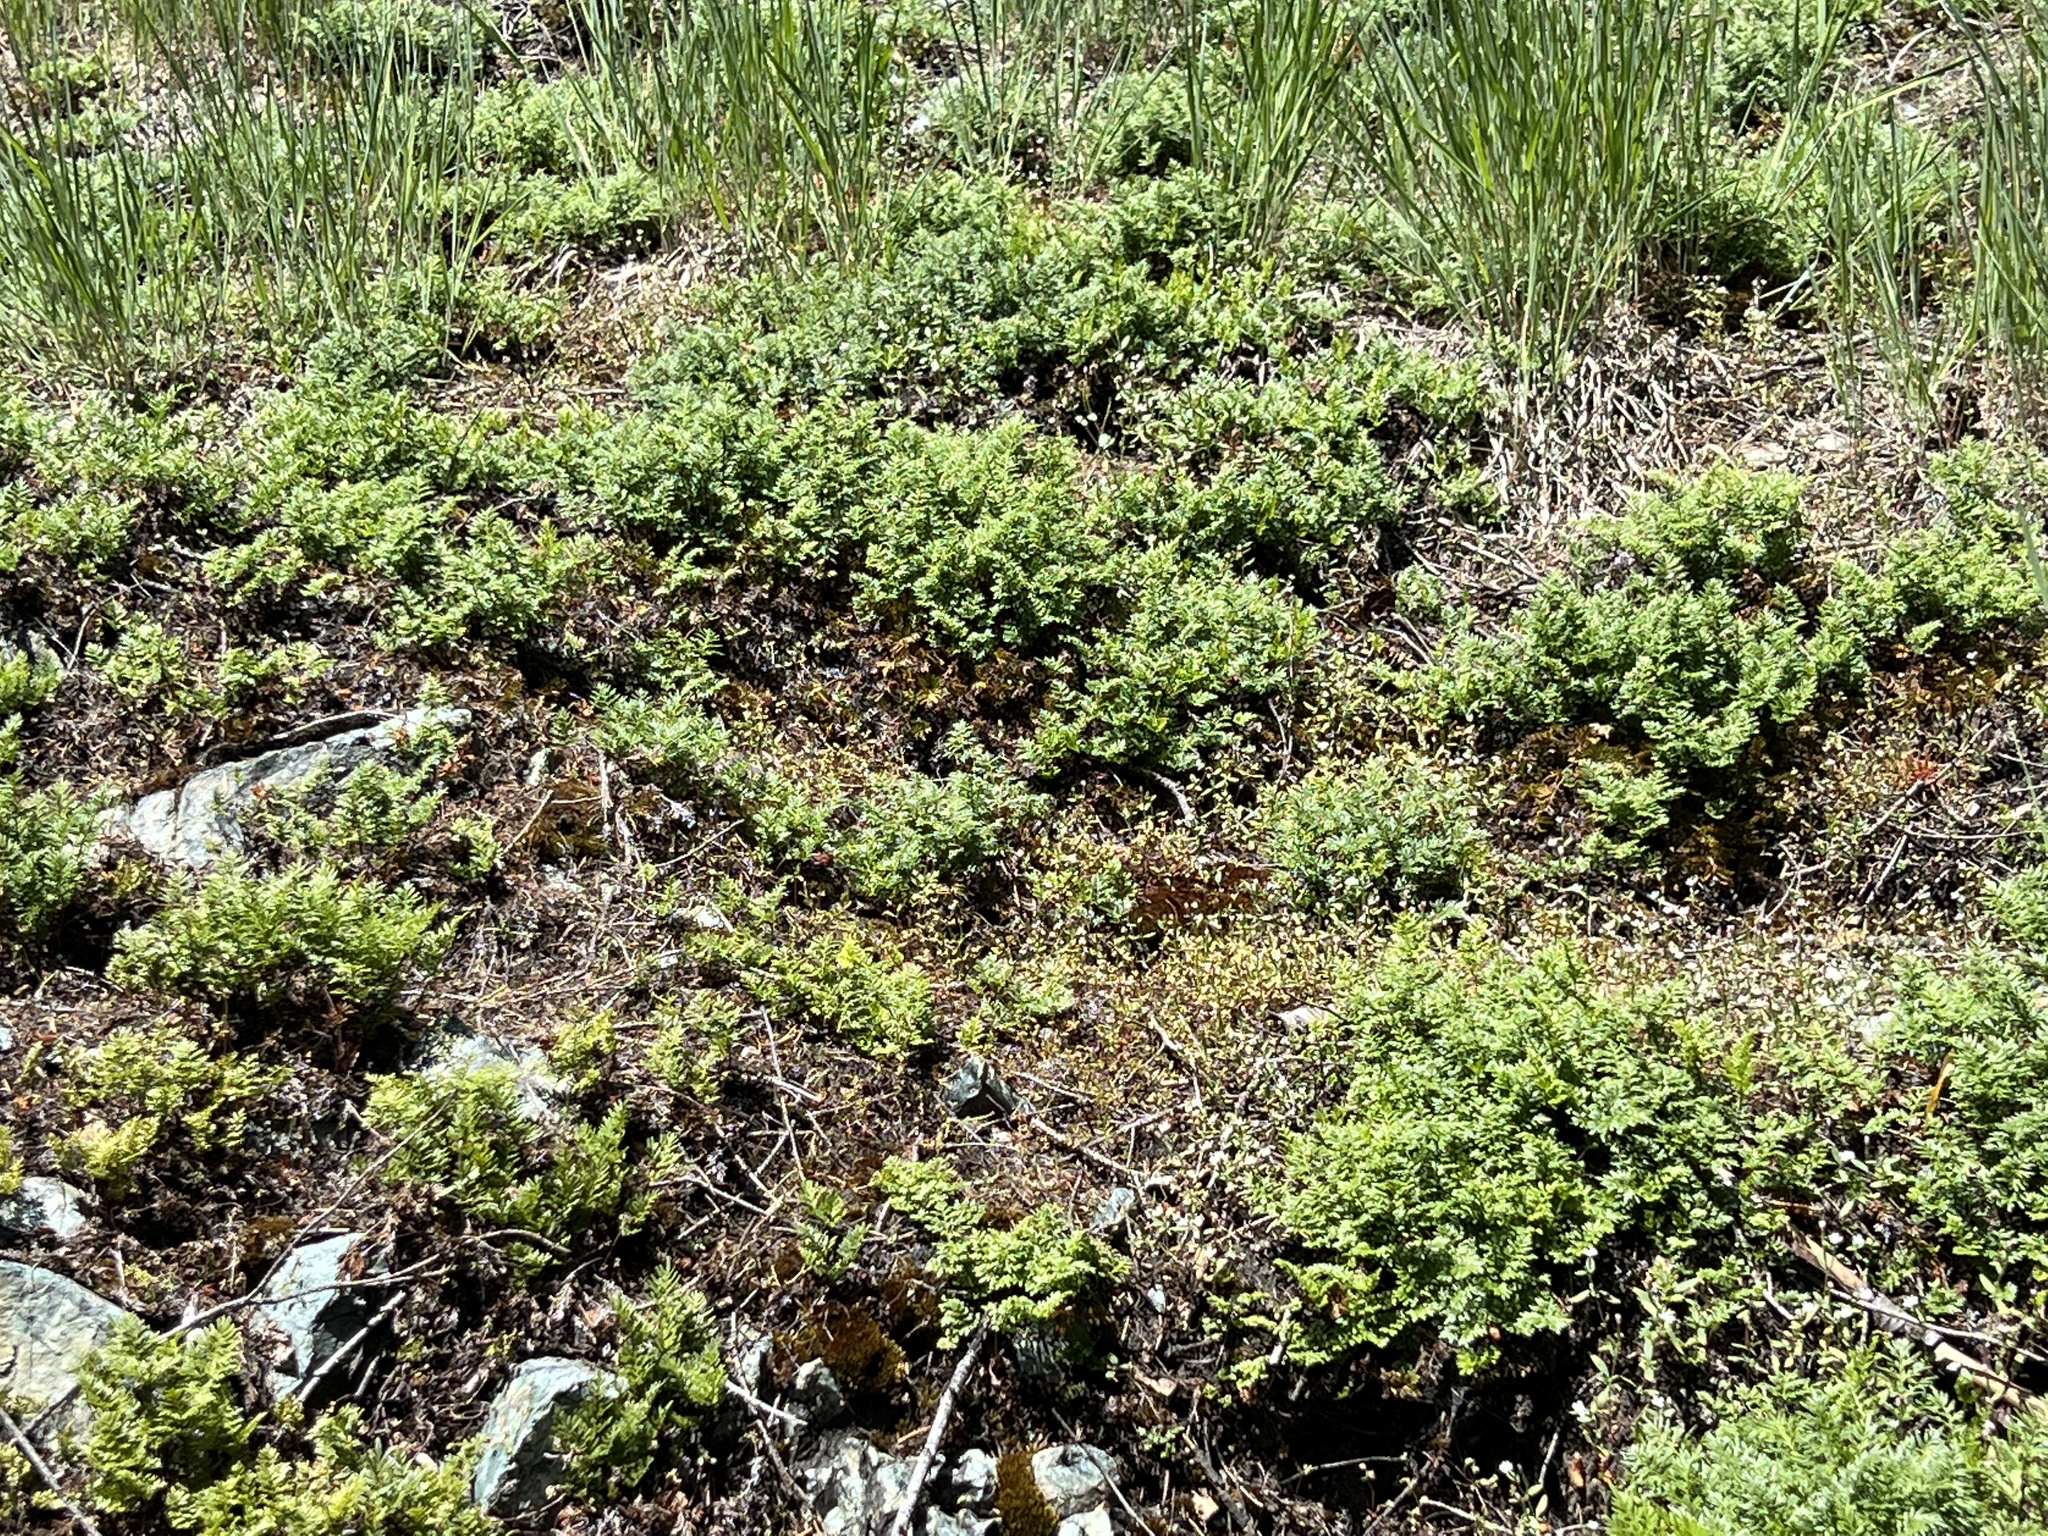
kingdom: Plantae
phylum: Tracheophyta
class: Polypodiopsida
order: Polypodiales
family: Pteridaceae
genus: Aspidotis
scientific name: Aspidotis densa
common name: Indian's dream
